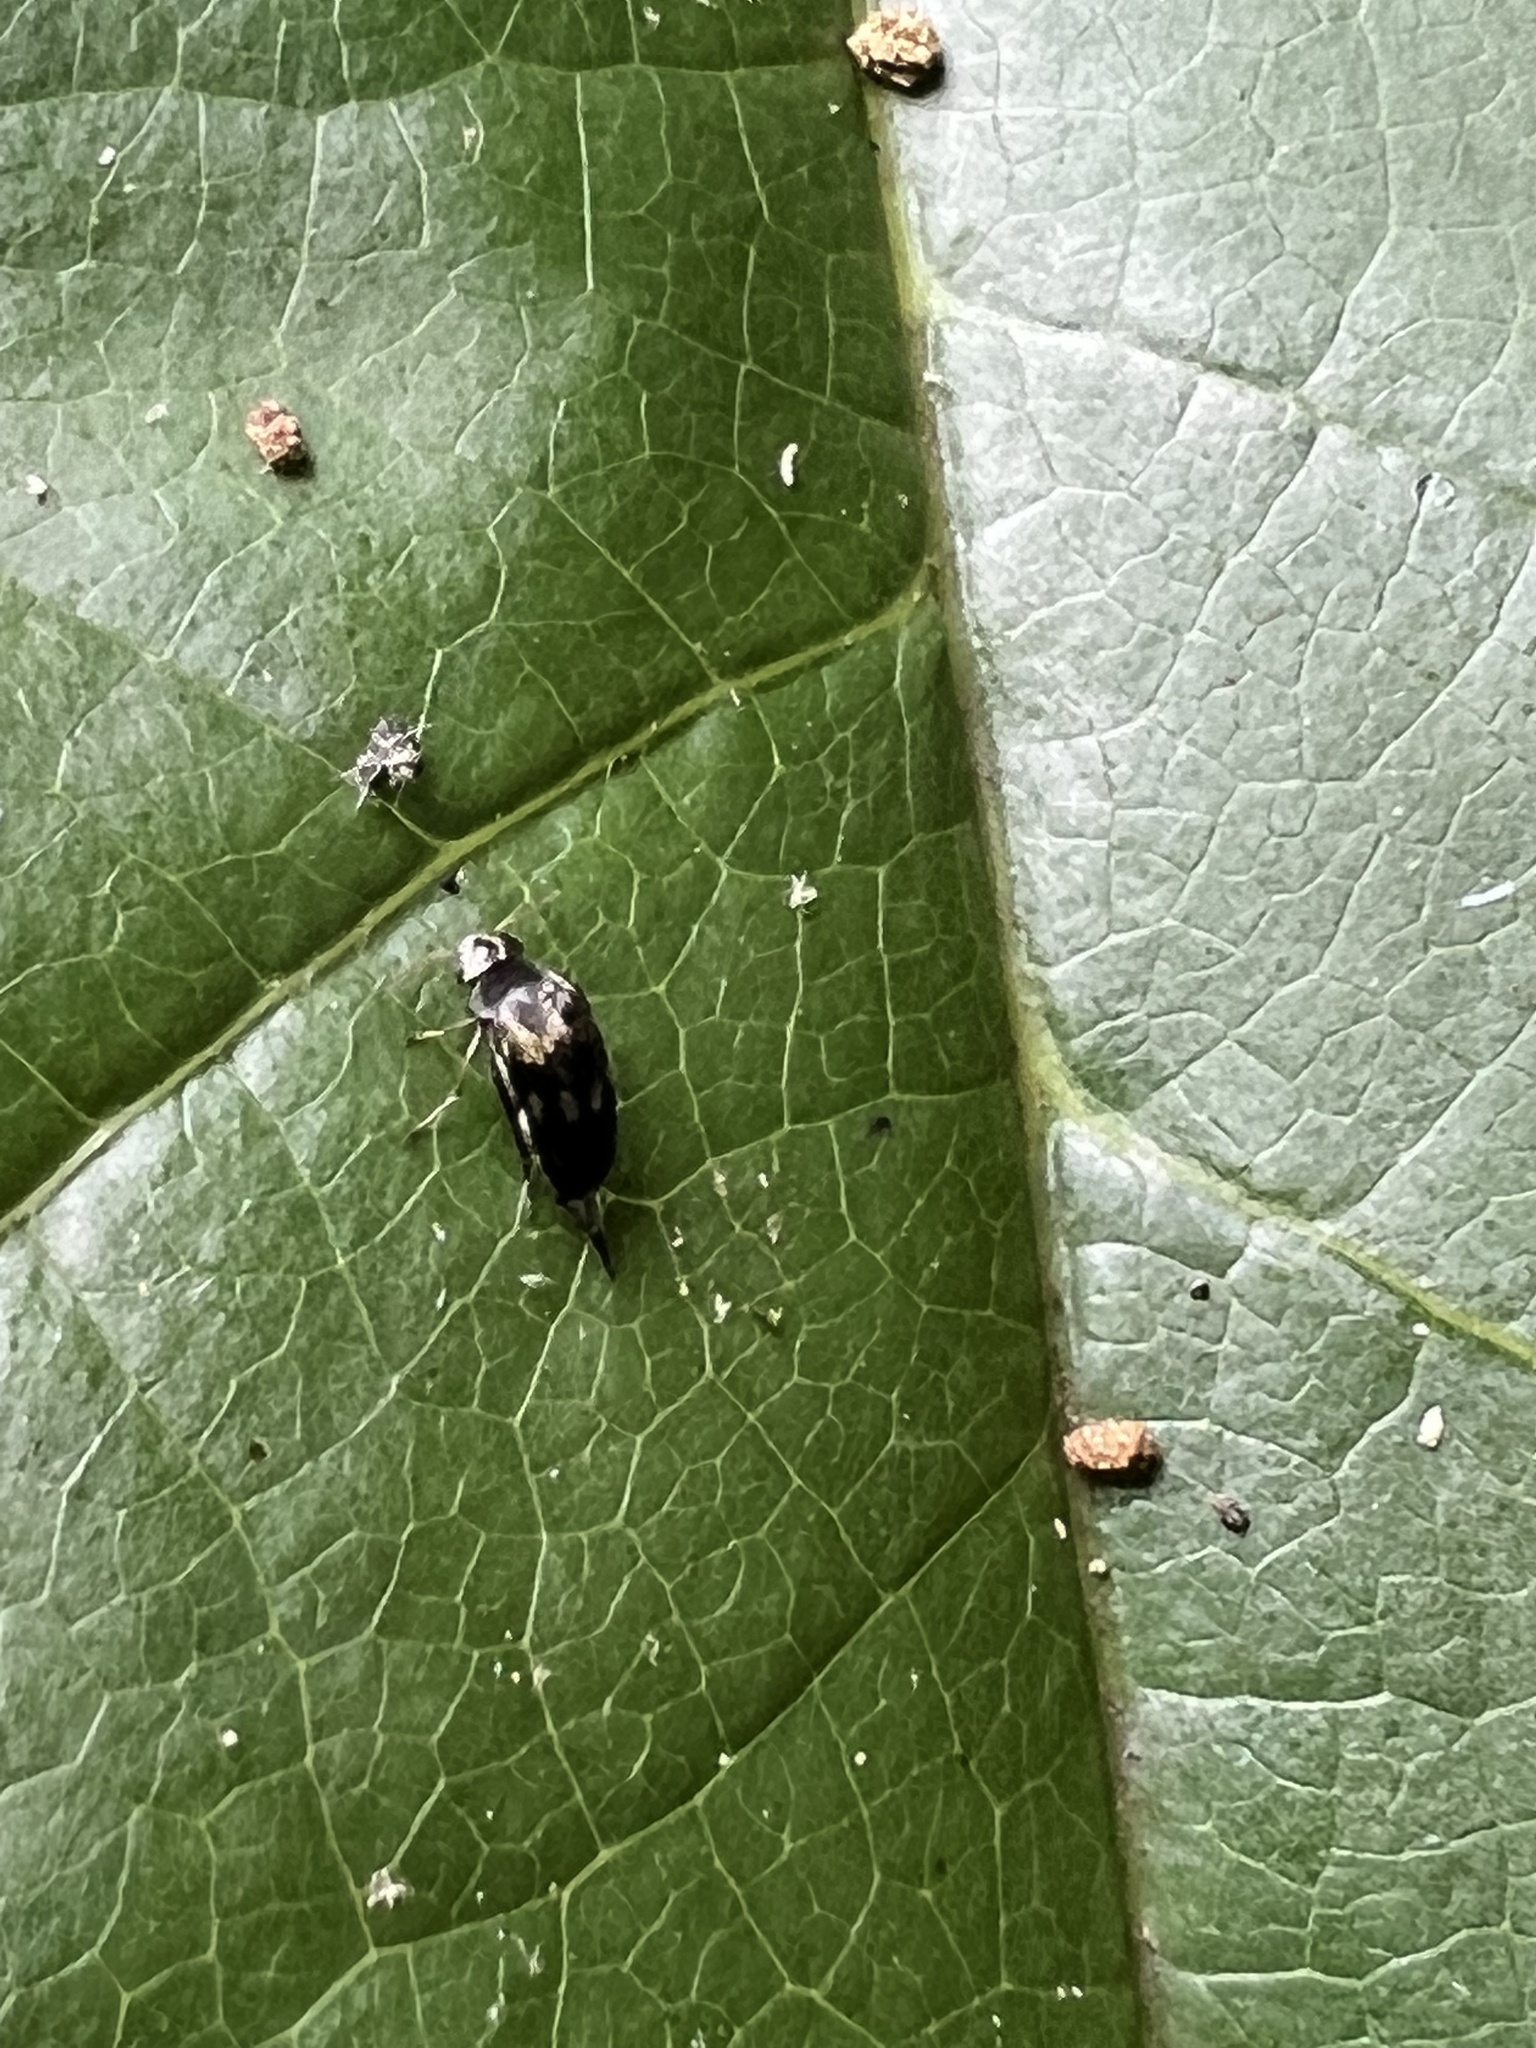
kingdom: Animalia
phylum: Arthropoda
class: Insecta
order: Coleoptera
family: Mordellidae
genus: Glipa
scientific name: Glipa oculata
